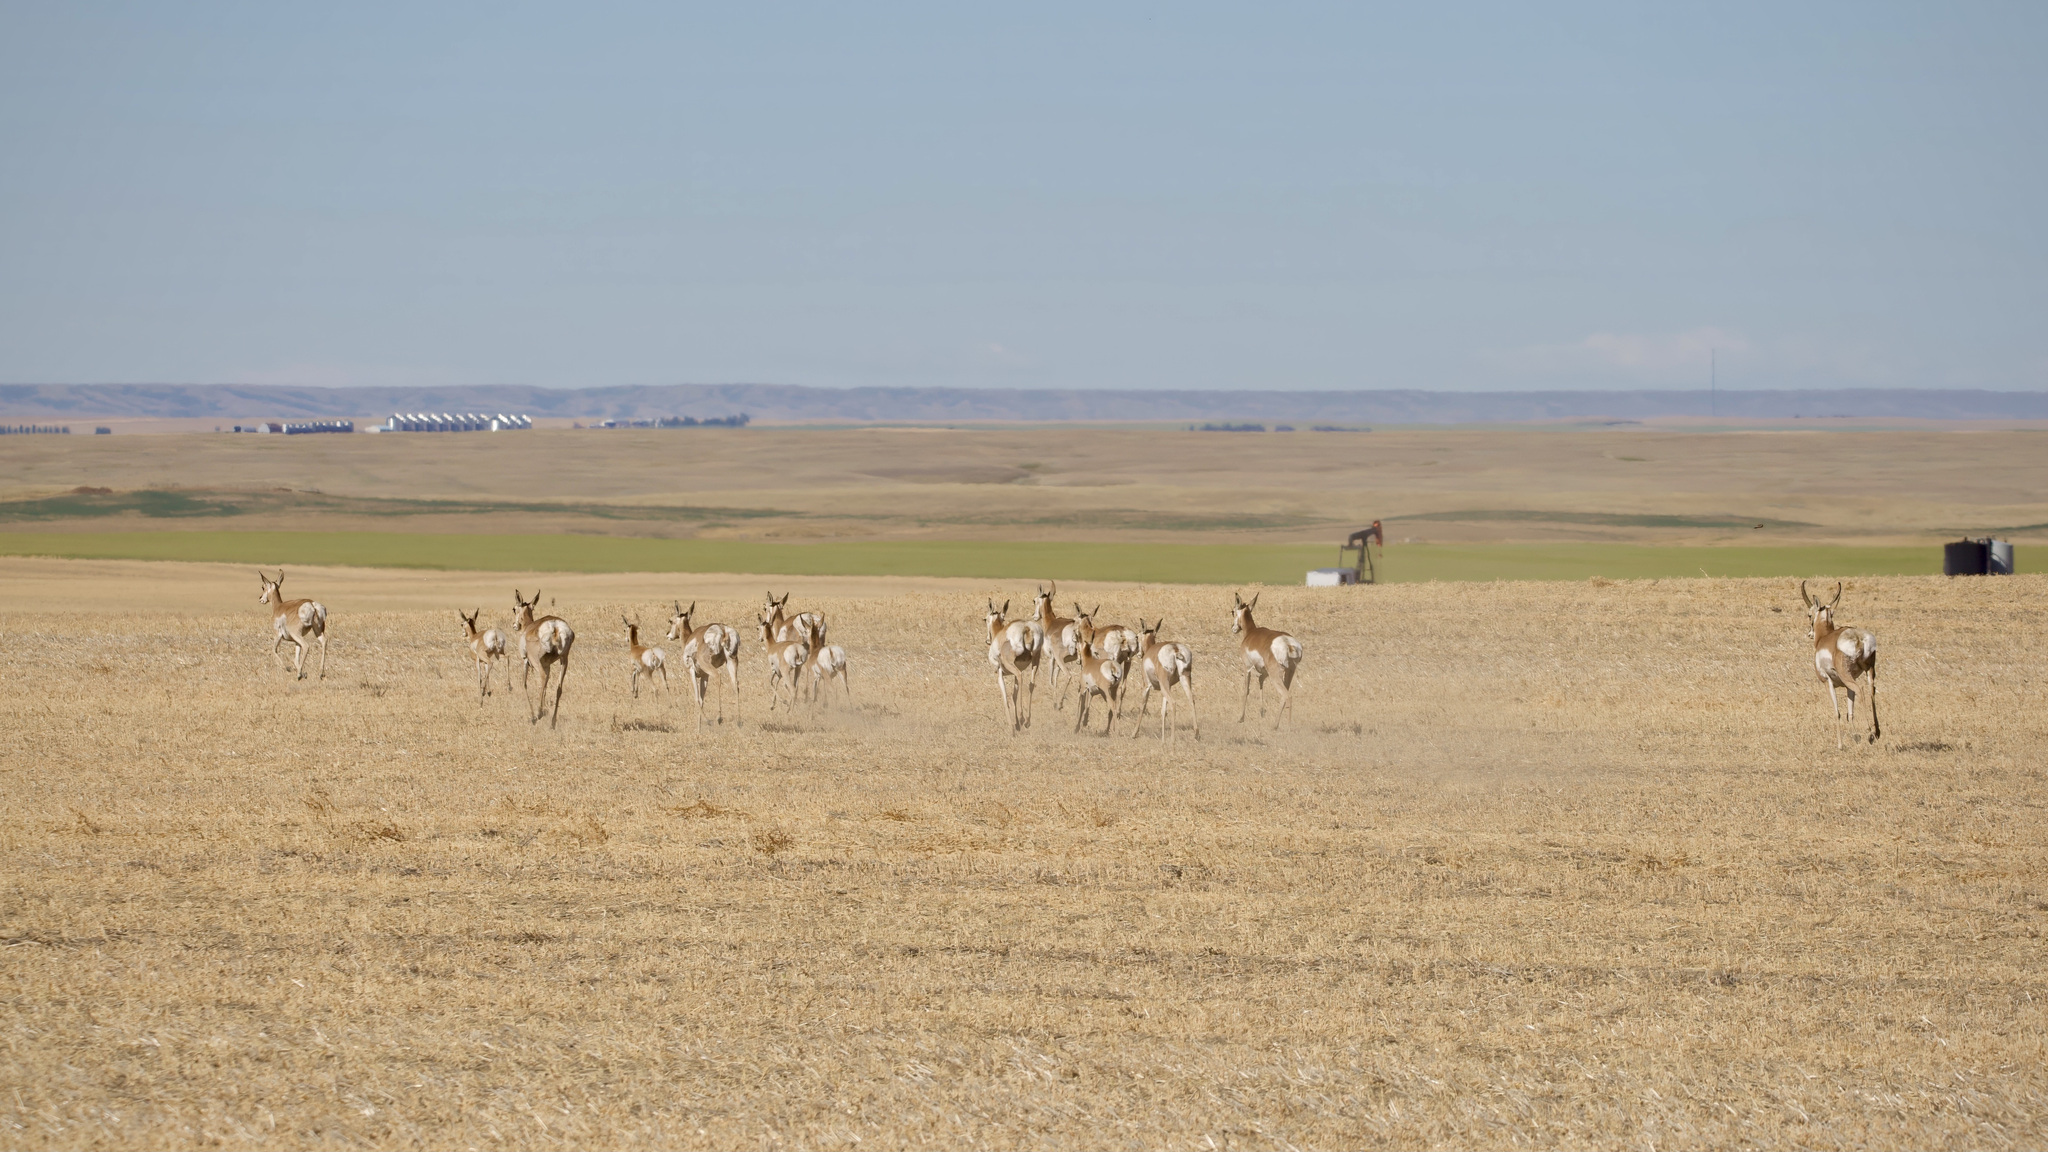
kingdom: Animalia
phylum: Chordata
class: Mammalia
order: Artiodactyla
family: Antilocapridae
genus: Antilocapra
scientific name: Antilocapra americana
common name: Pronghorn
